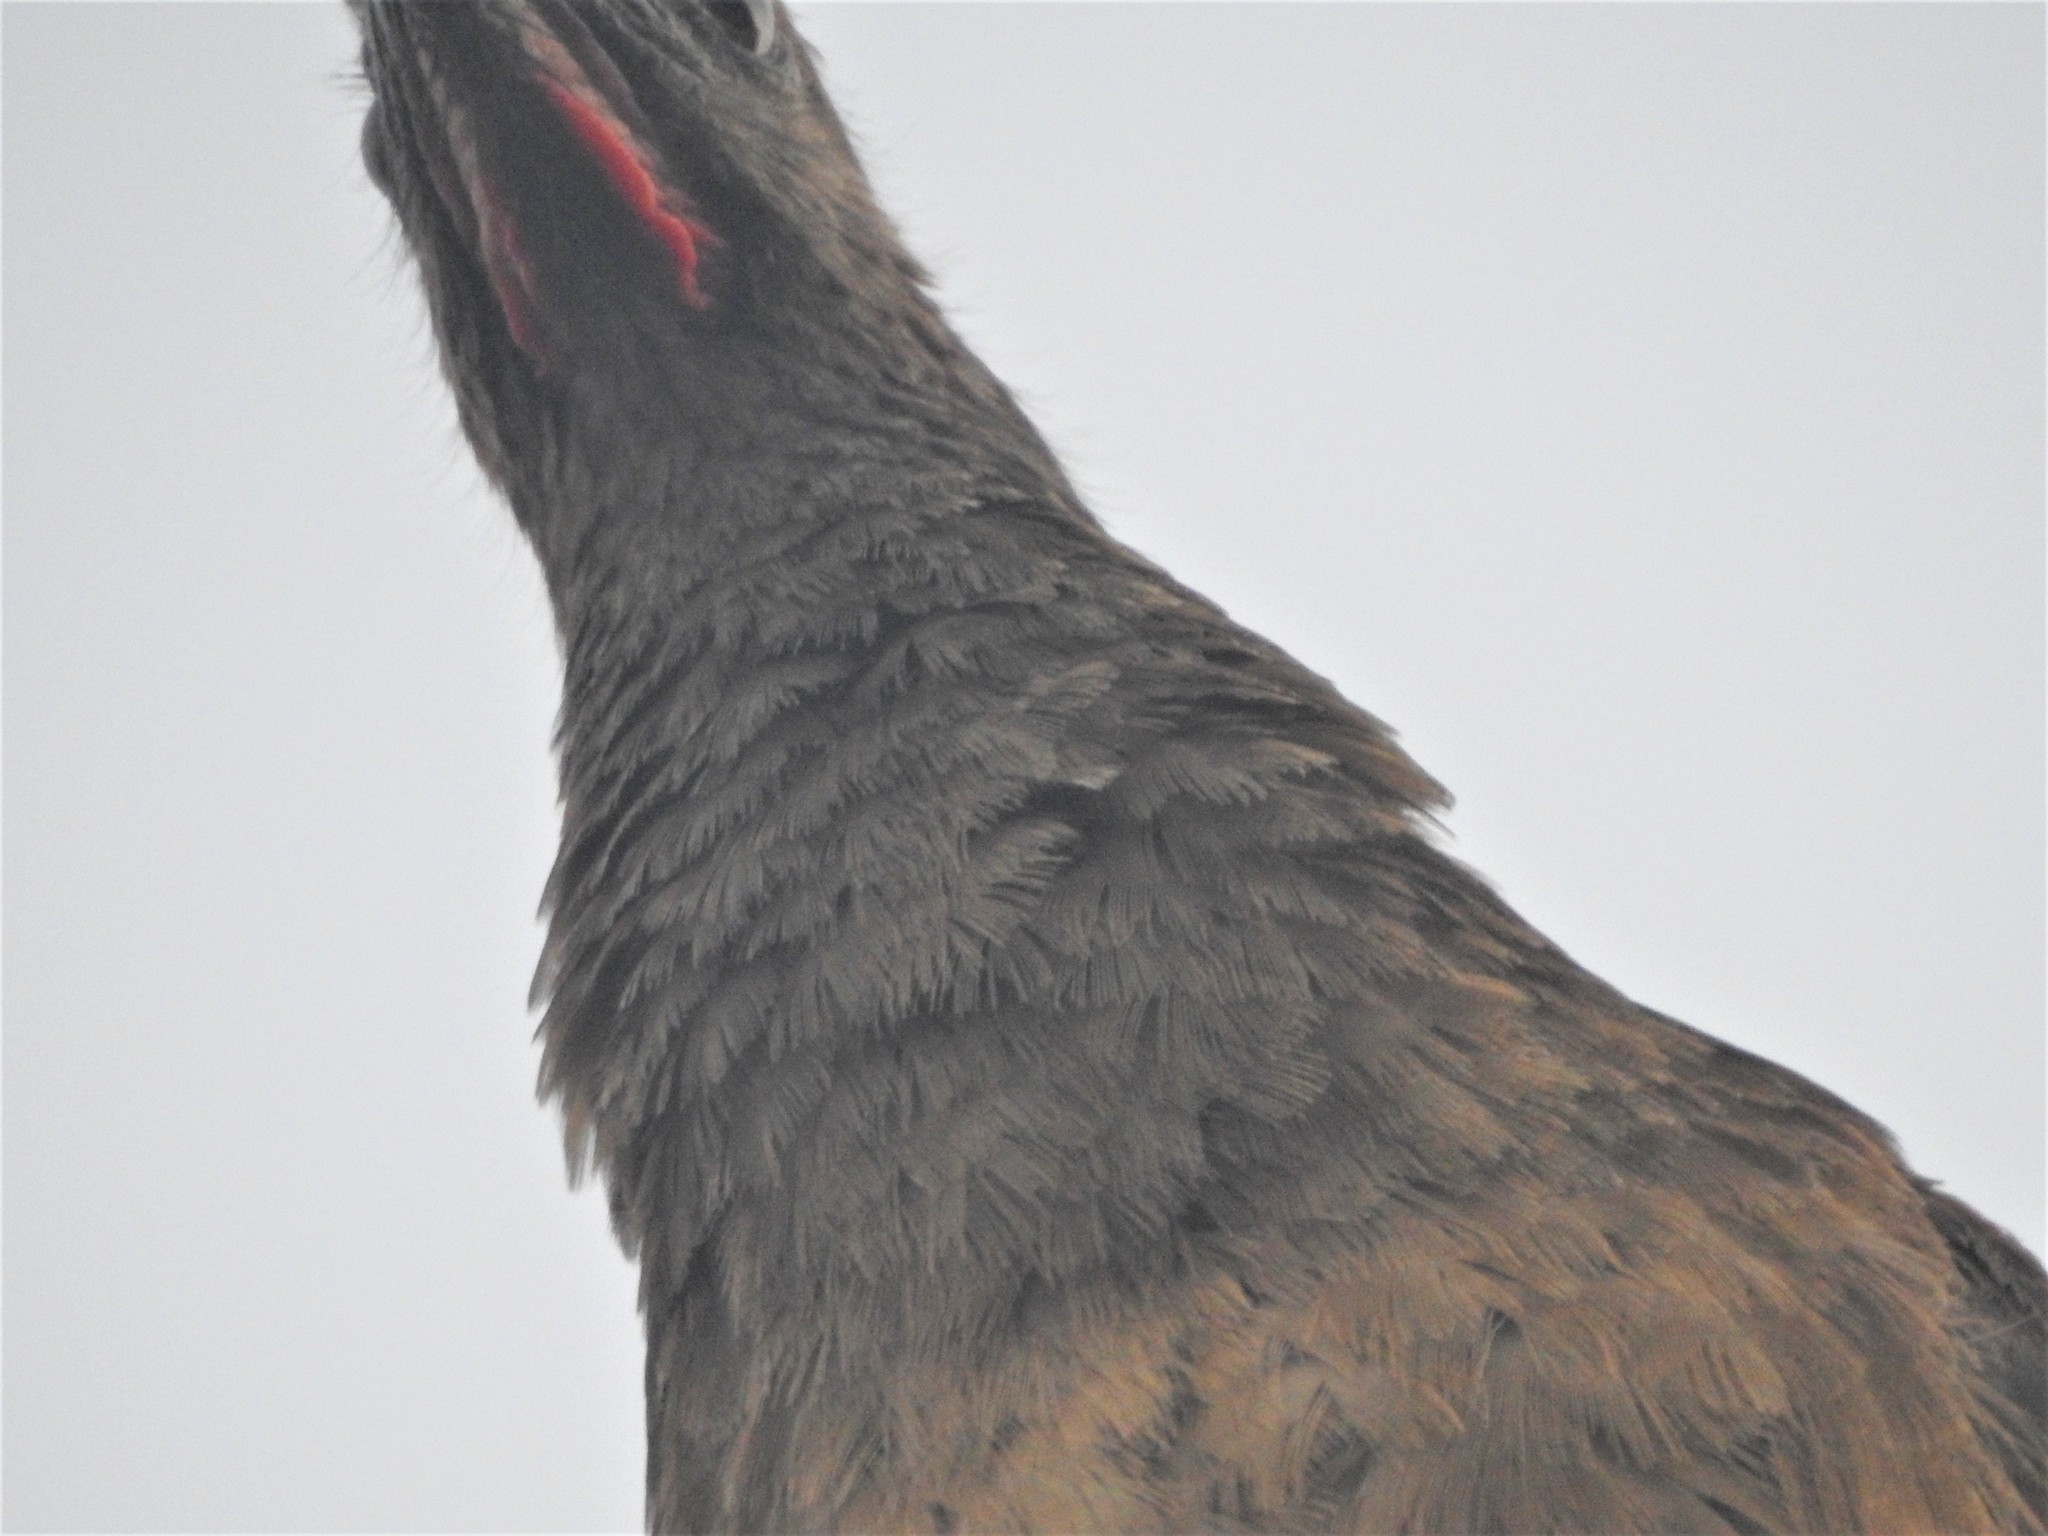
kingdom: Animalia
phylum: Chordata
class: Aves
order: Galliformes
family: Cracidae
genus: Ortalis
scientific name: Ortalis vetula
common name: Plain chachalaca
